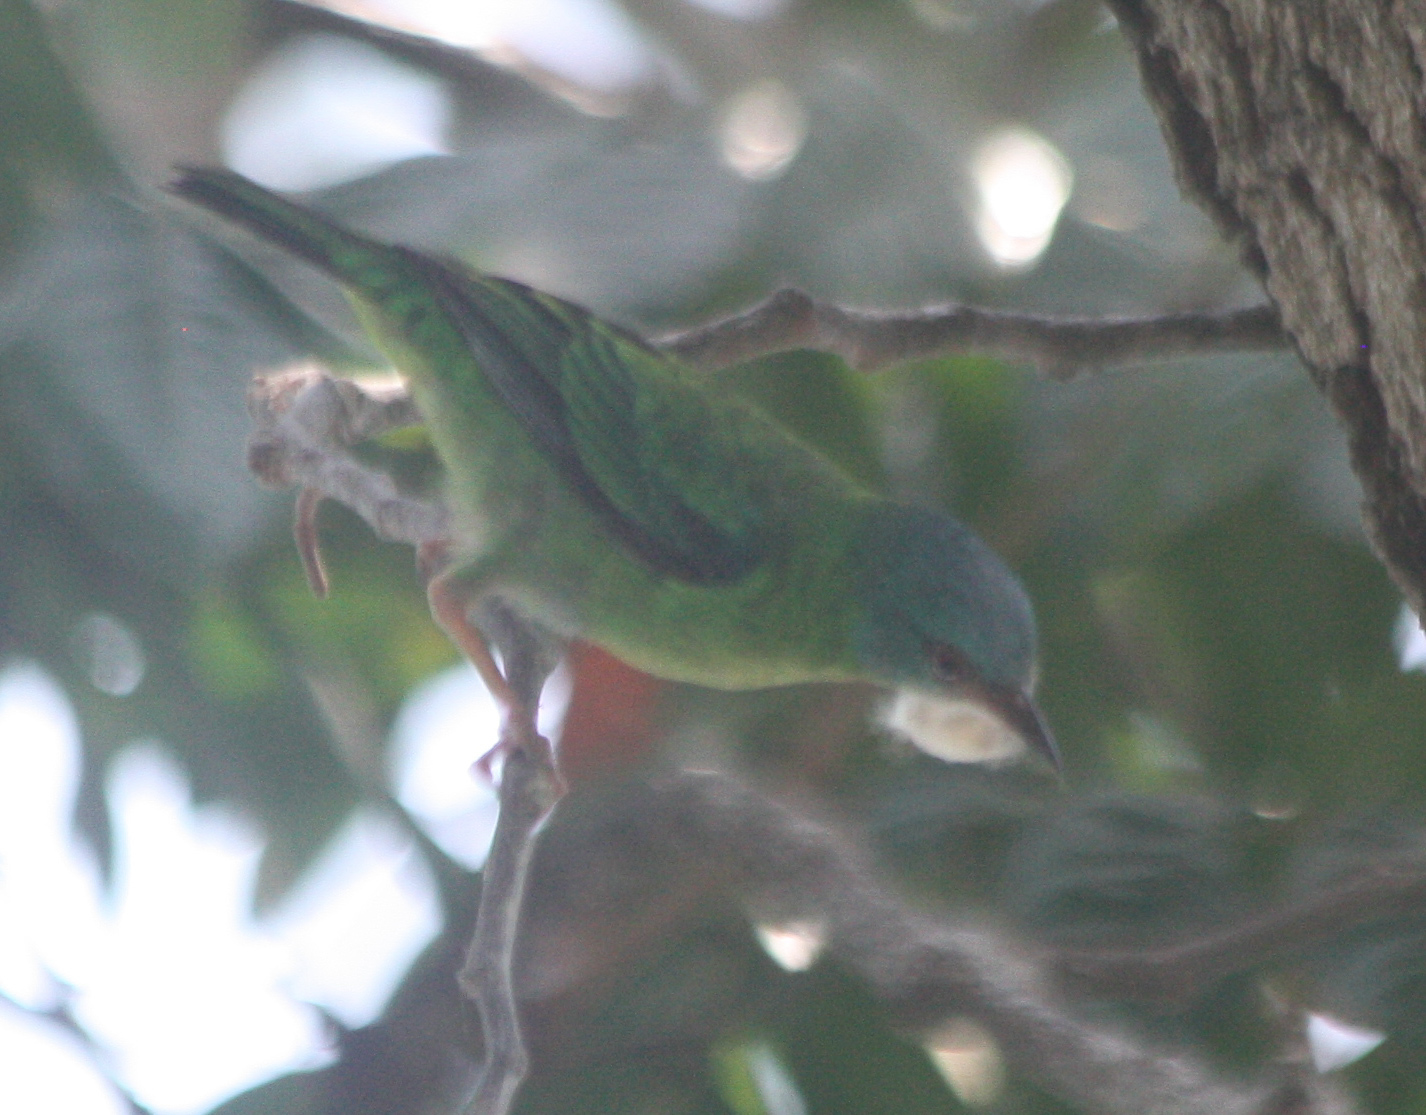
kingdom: Animalia
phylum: Chordata
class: Aves
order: Passeriformes
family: Thraupidae
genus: Dacnis
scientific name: Dacnis cayana
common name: Blue dacnis
